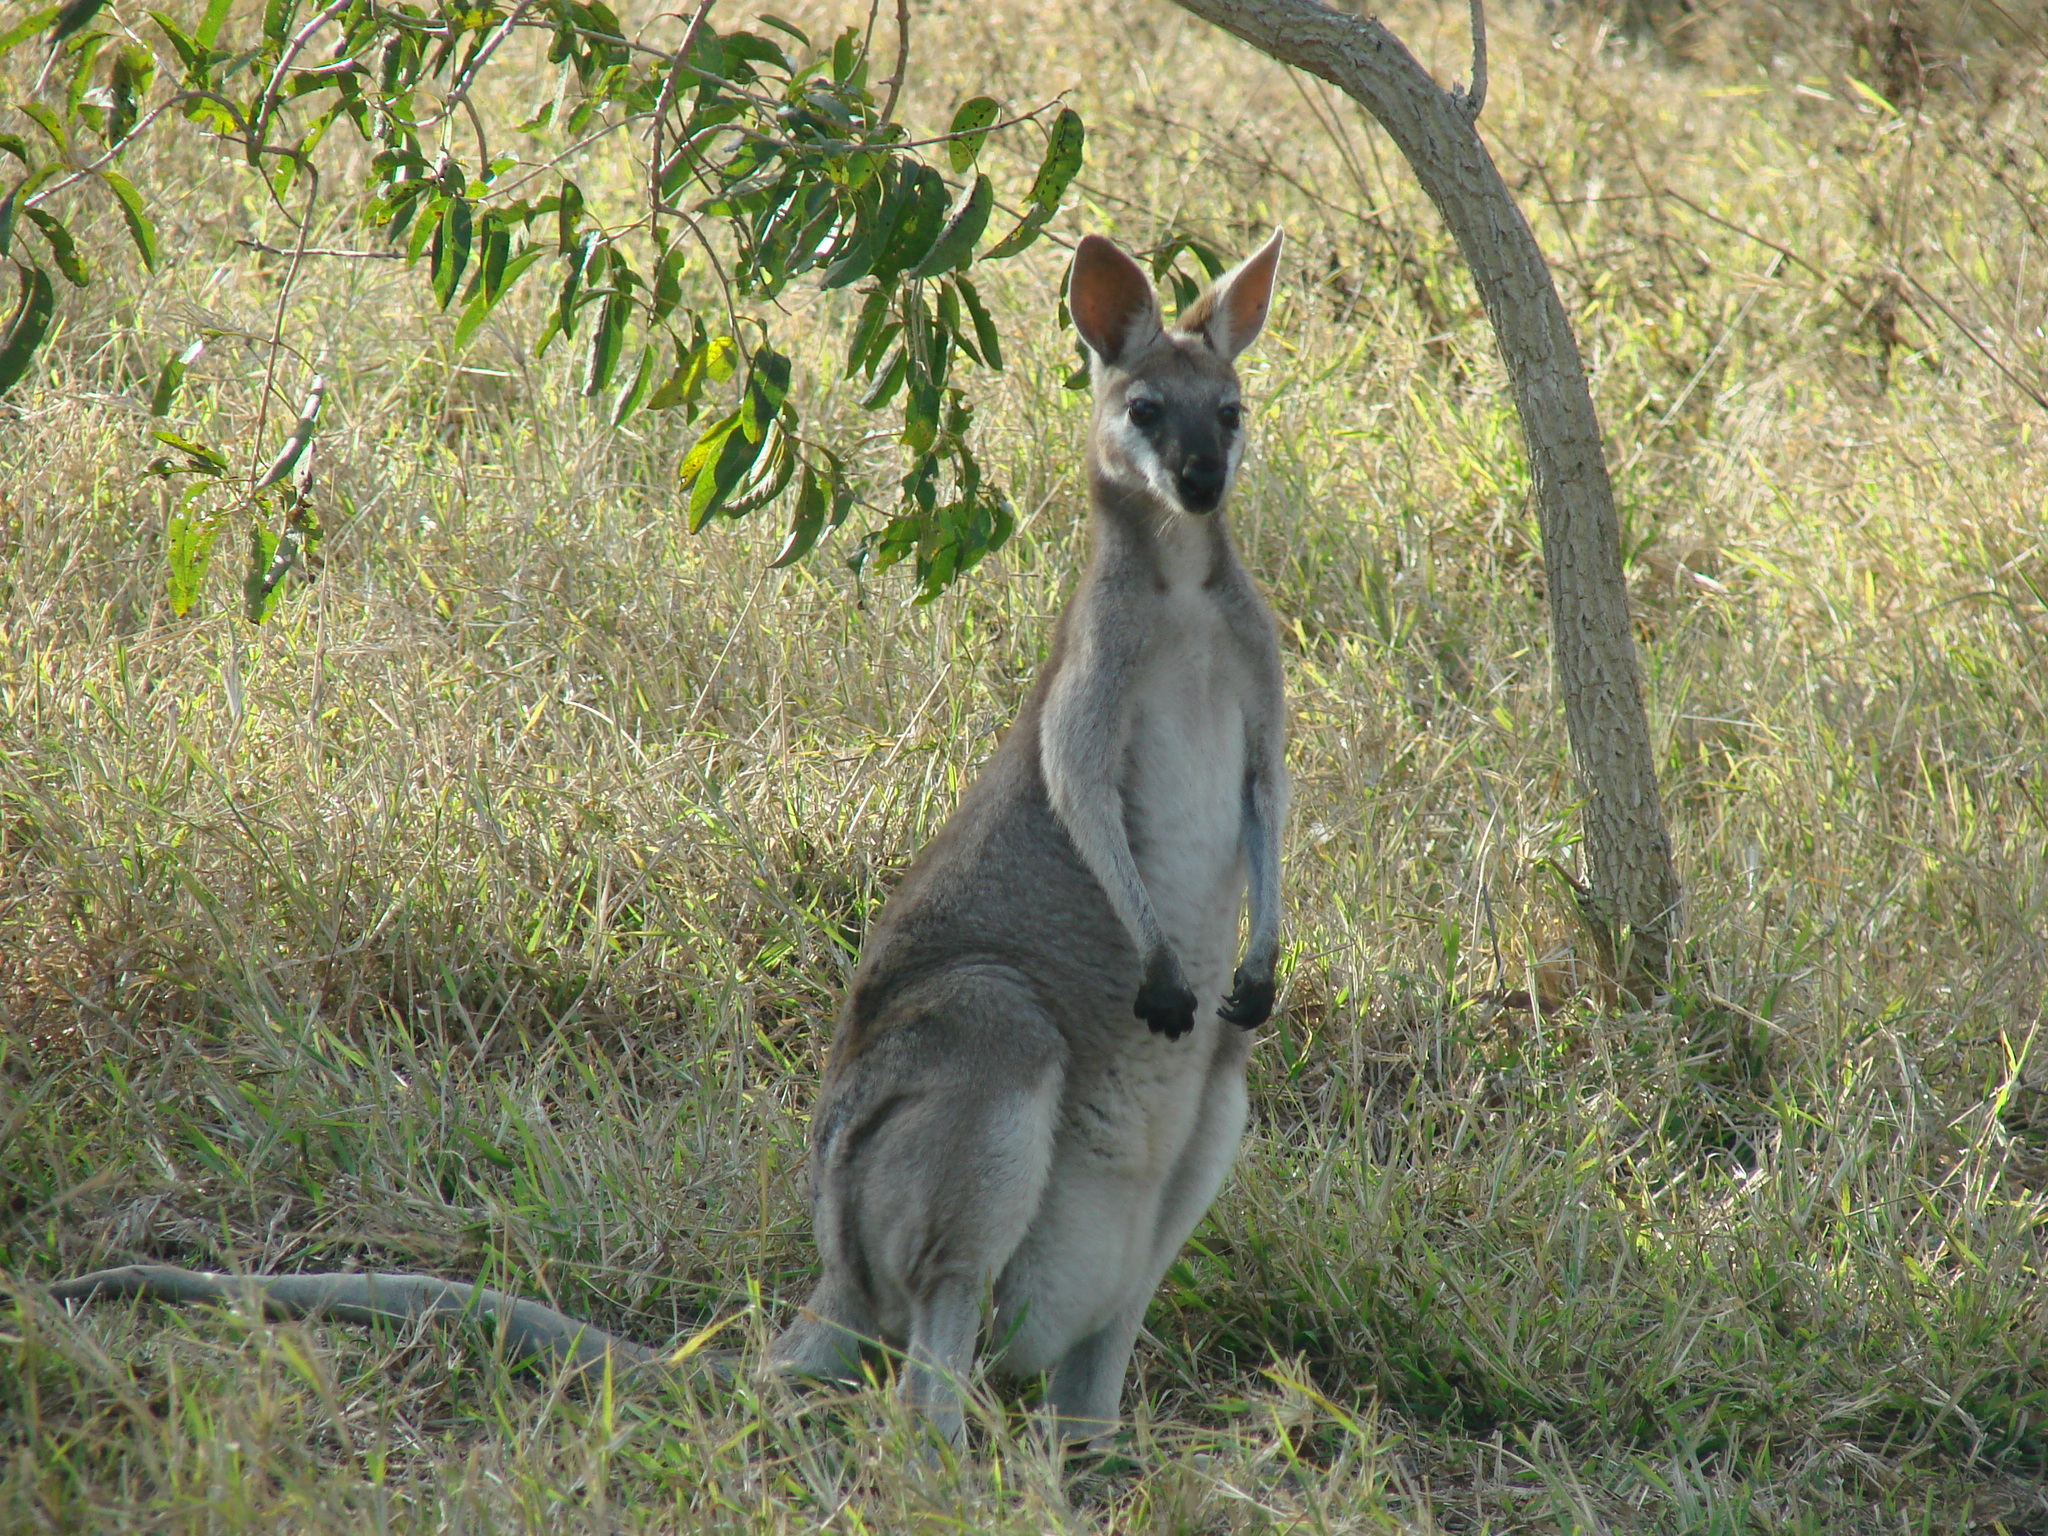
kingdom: Animalia
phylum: Chordata
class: Mammalia
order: Diprotodontia
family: Macropodidae
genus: Notamacropus
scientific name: Notamacropus parryi
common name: Whip-tailed wallaby
